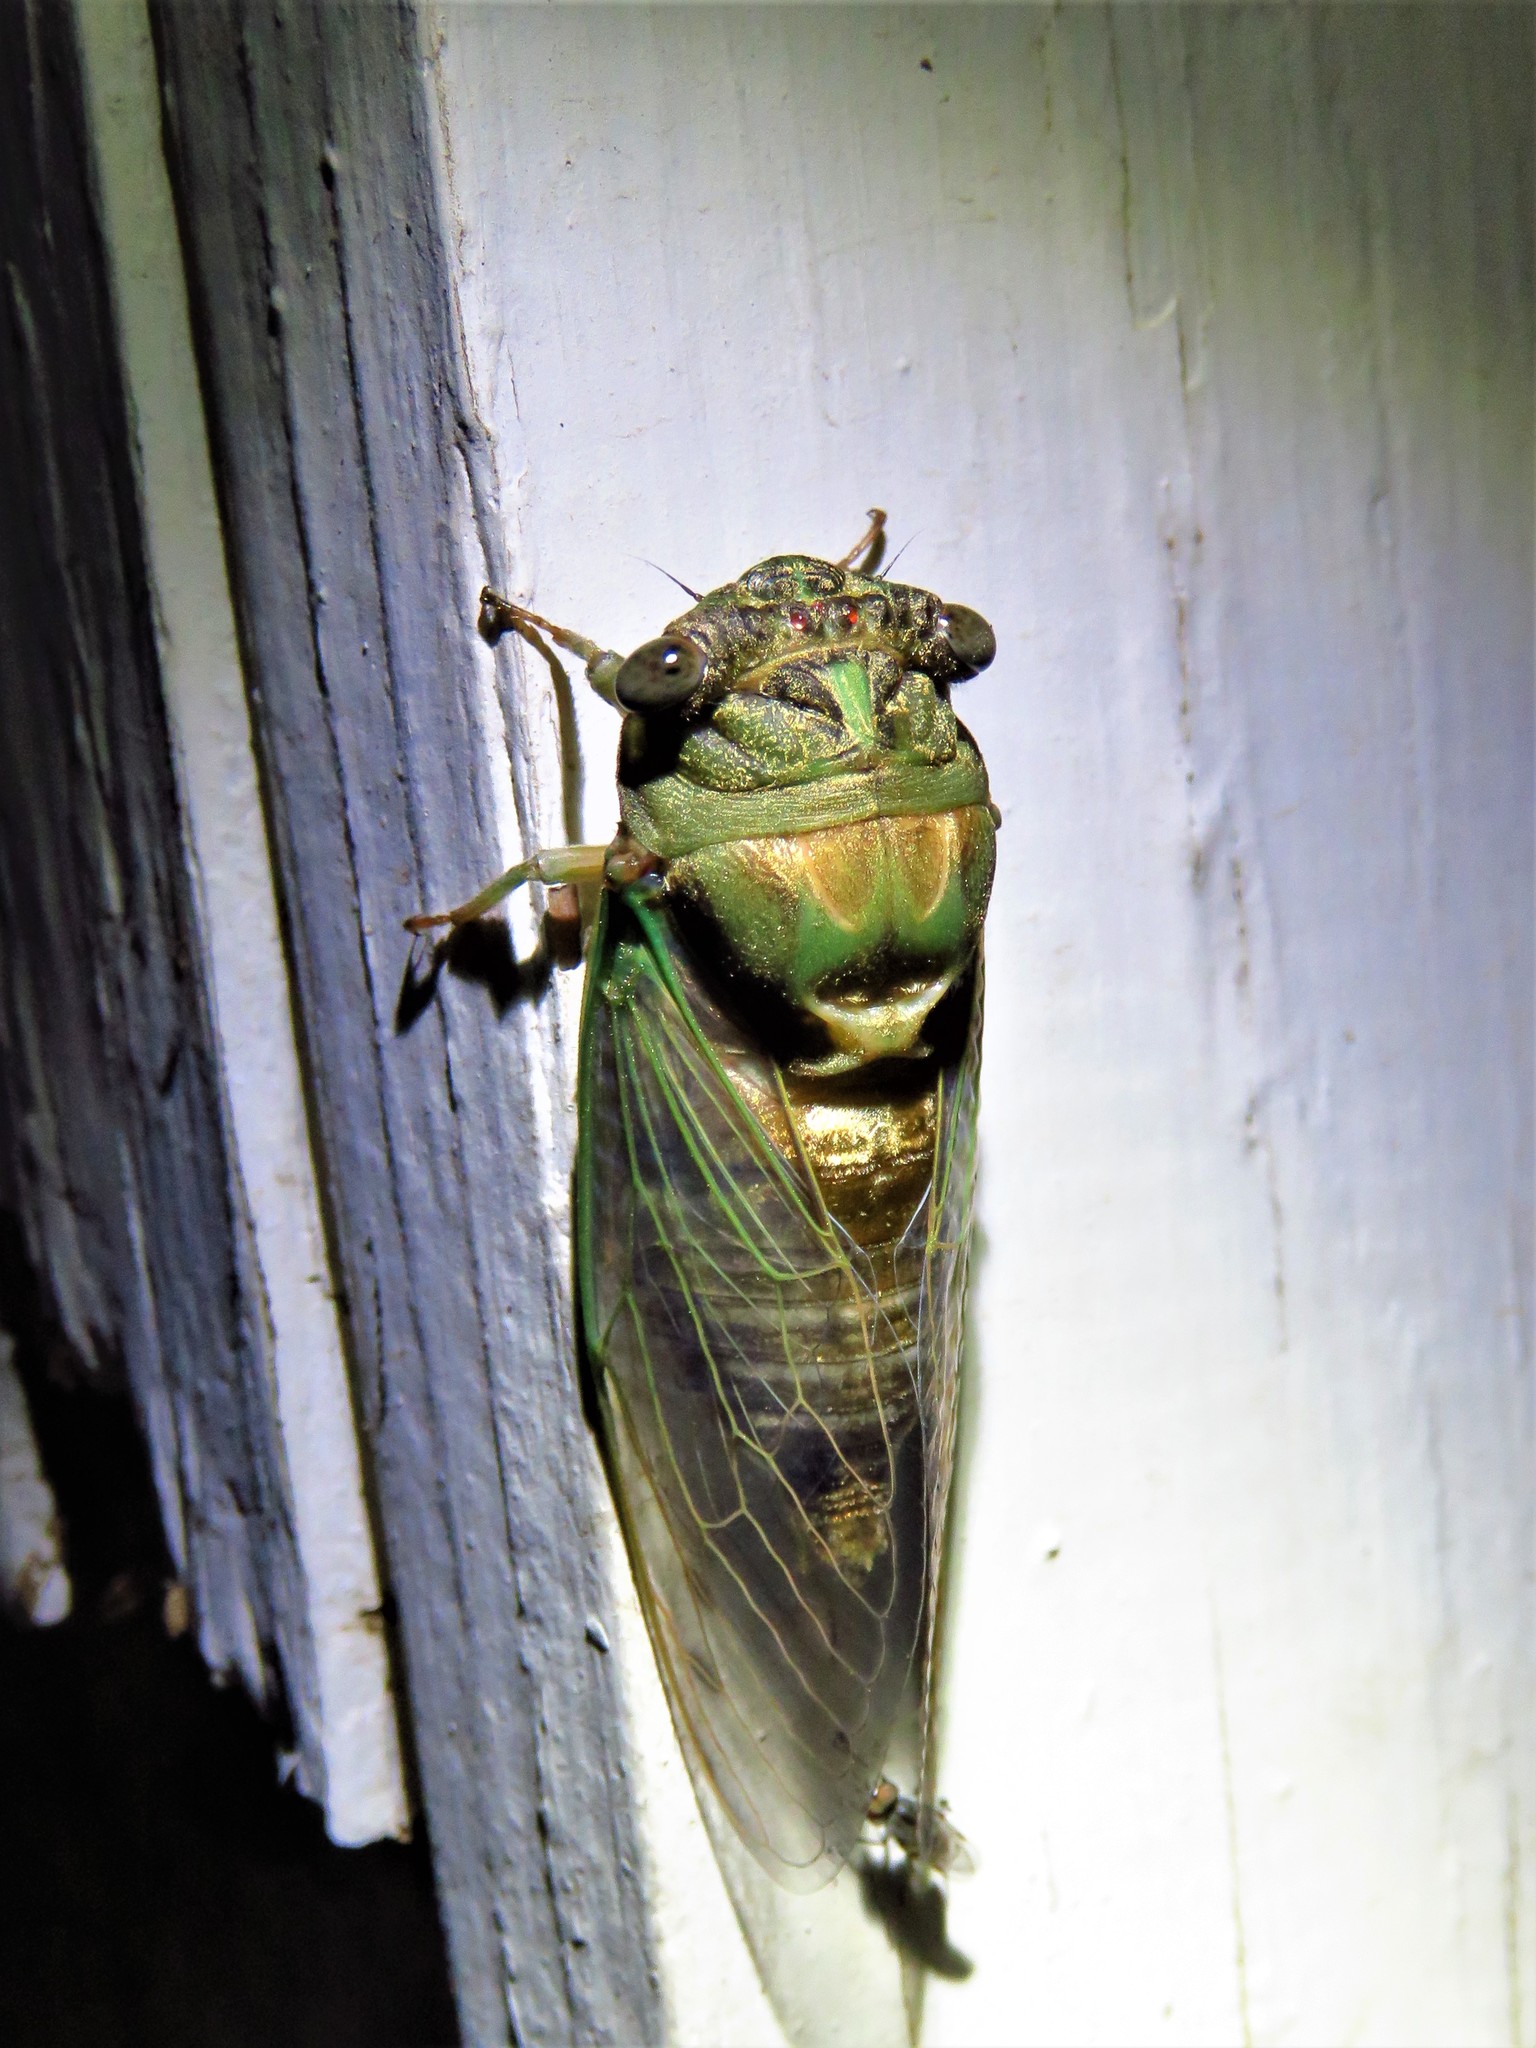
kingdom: Animalia
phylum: Arthropoda
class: Insecta
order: Hemiptera
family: Cicadidae
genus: Neotibicen
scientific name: Neotibicen pruinosus
